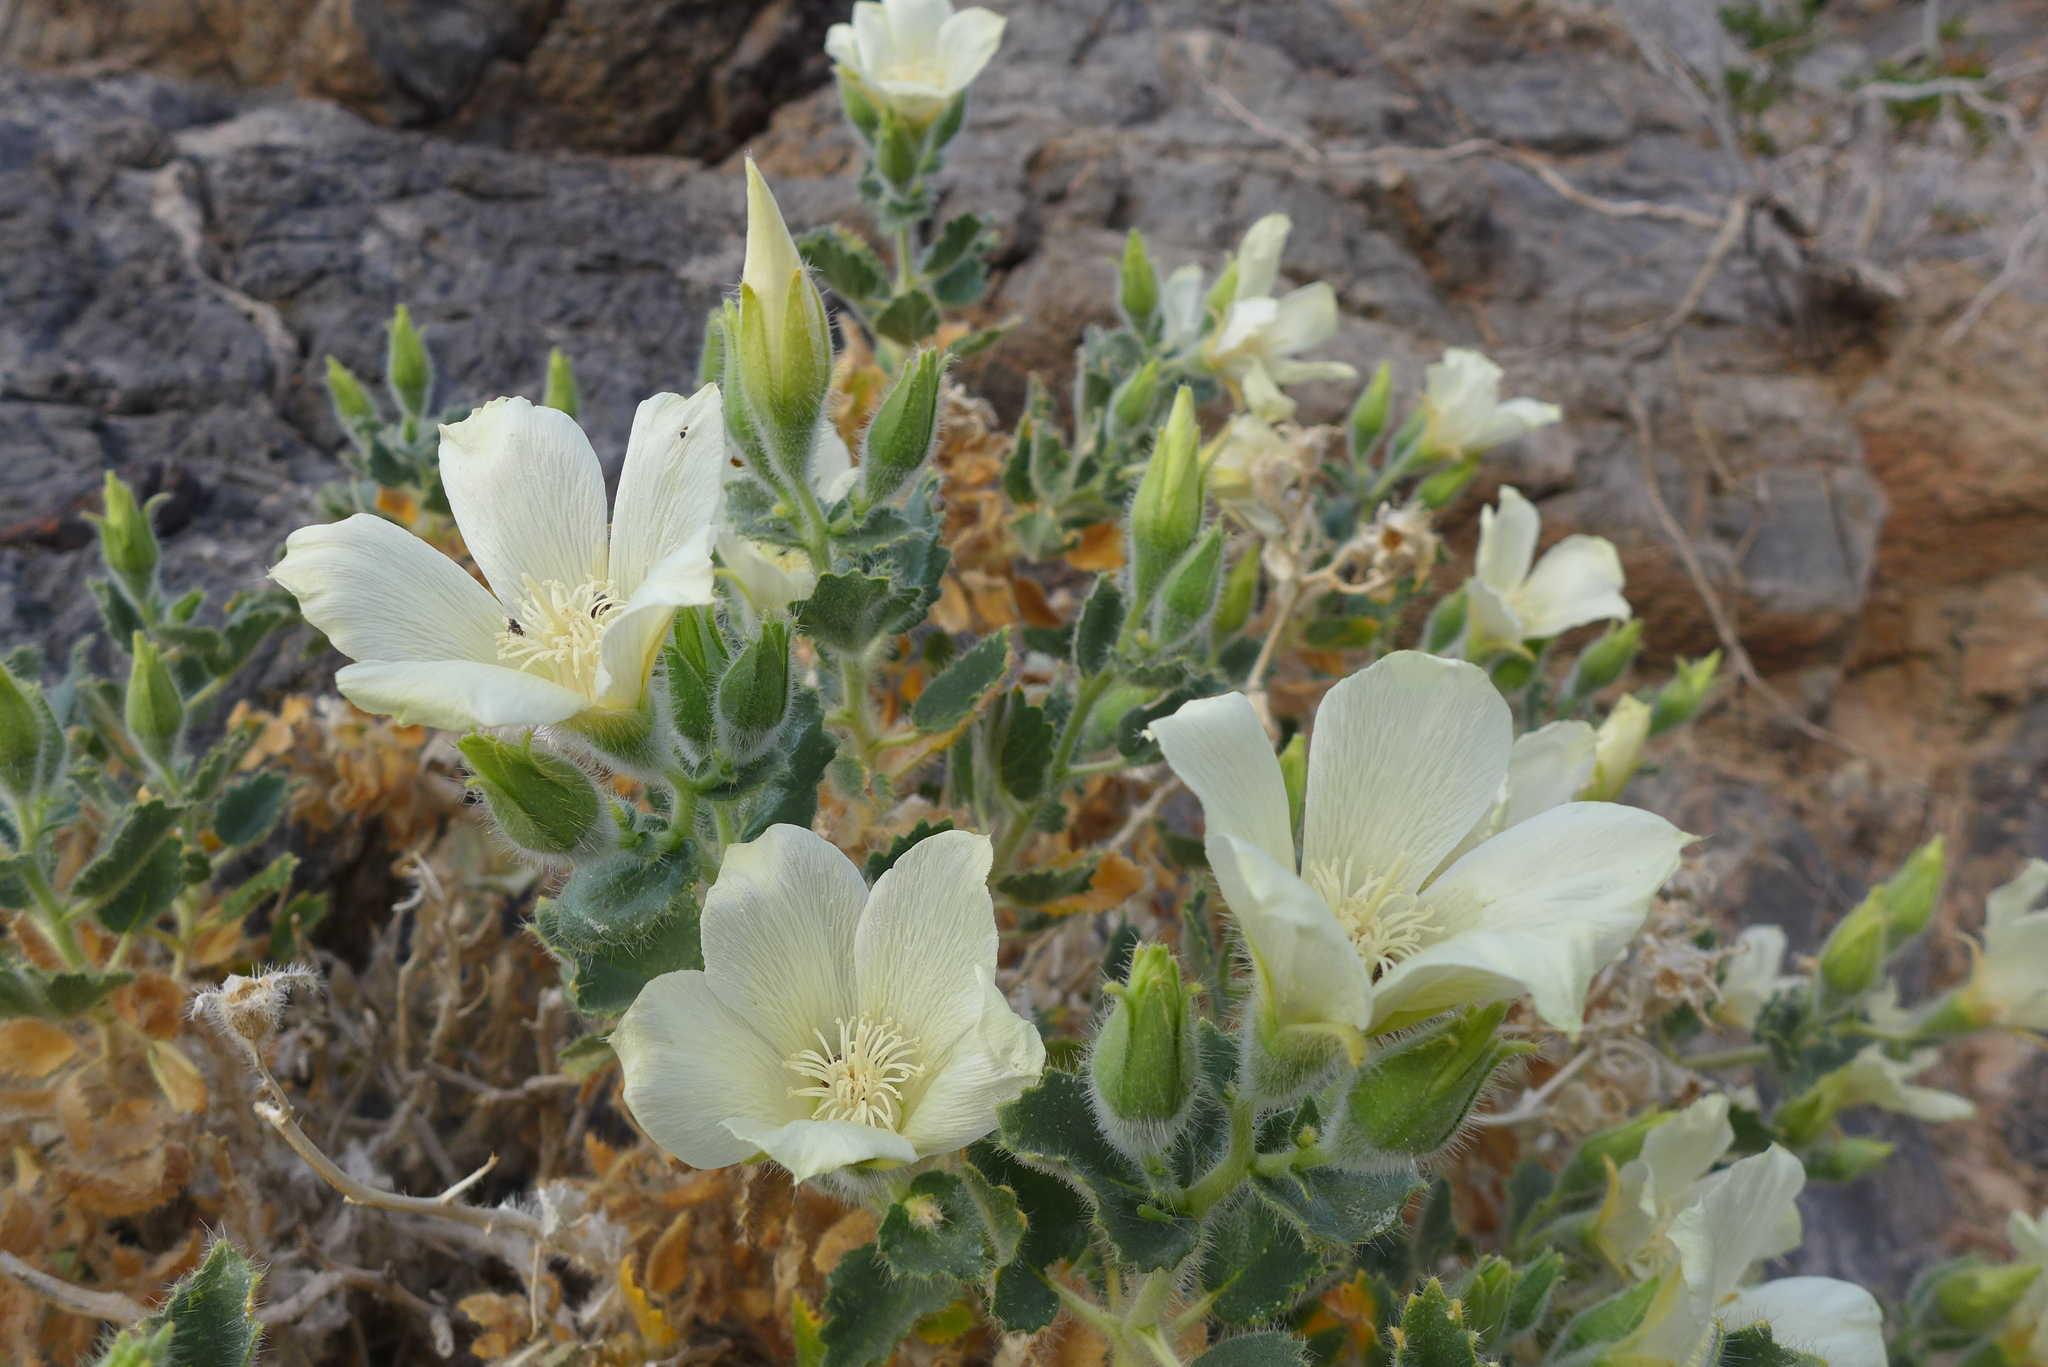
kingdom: Plantae
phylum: Tracheophyta
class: Magnoliopsida
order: Cornales
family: Loasaceae
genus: Eucnide
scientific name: Eucnide urens
